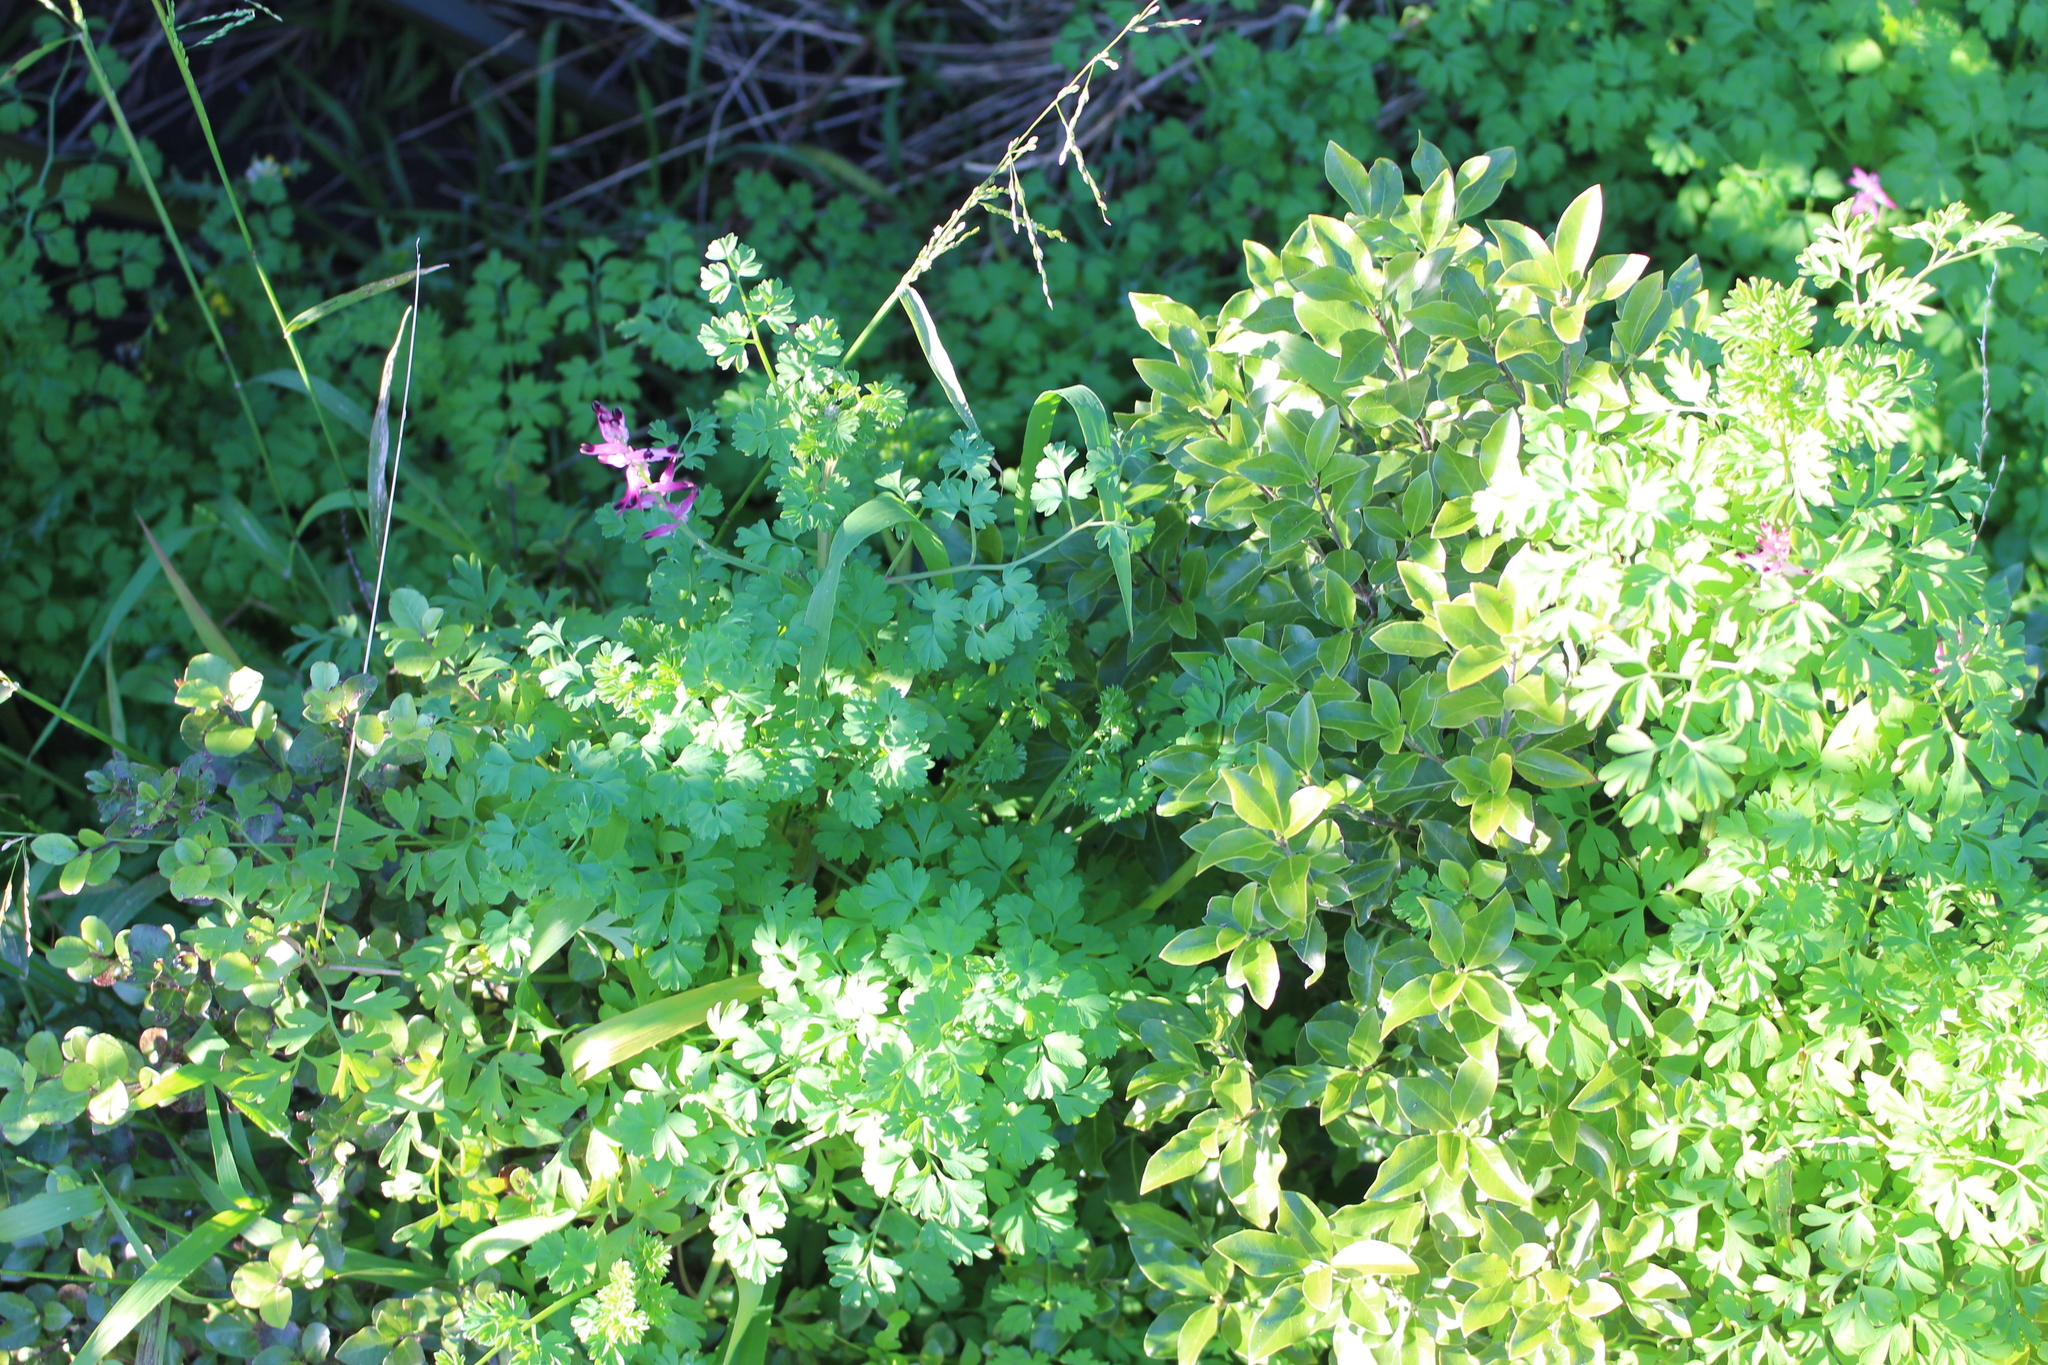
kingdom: Plantae
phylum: Tracheophyta
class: Magnoliopsida
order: Ranunculales
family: Papaveraceae
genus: Fumaria
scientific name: Fumaria muralis
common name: Common ramping-fumitory
